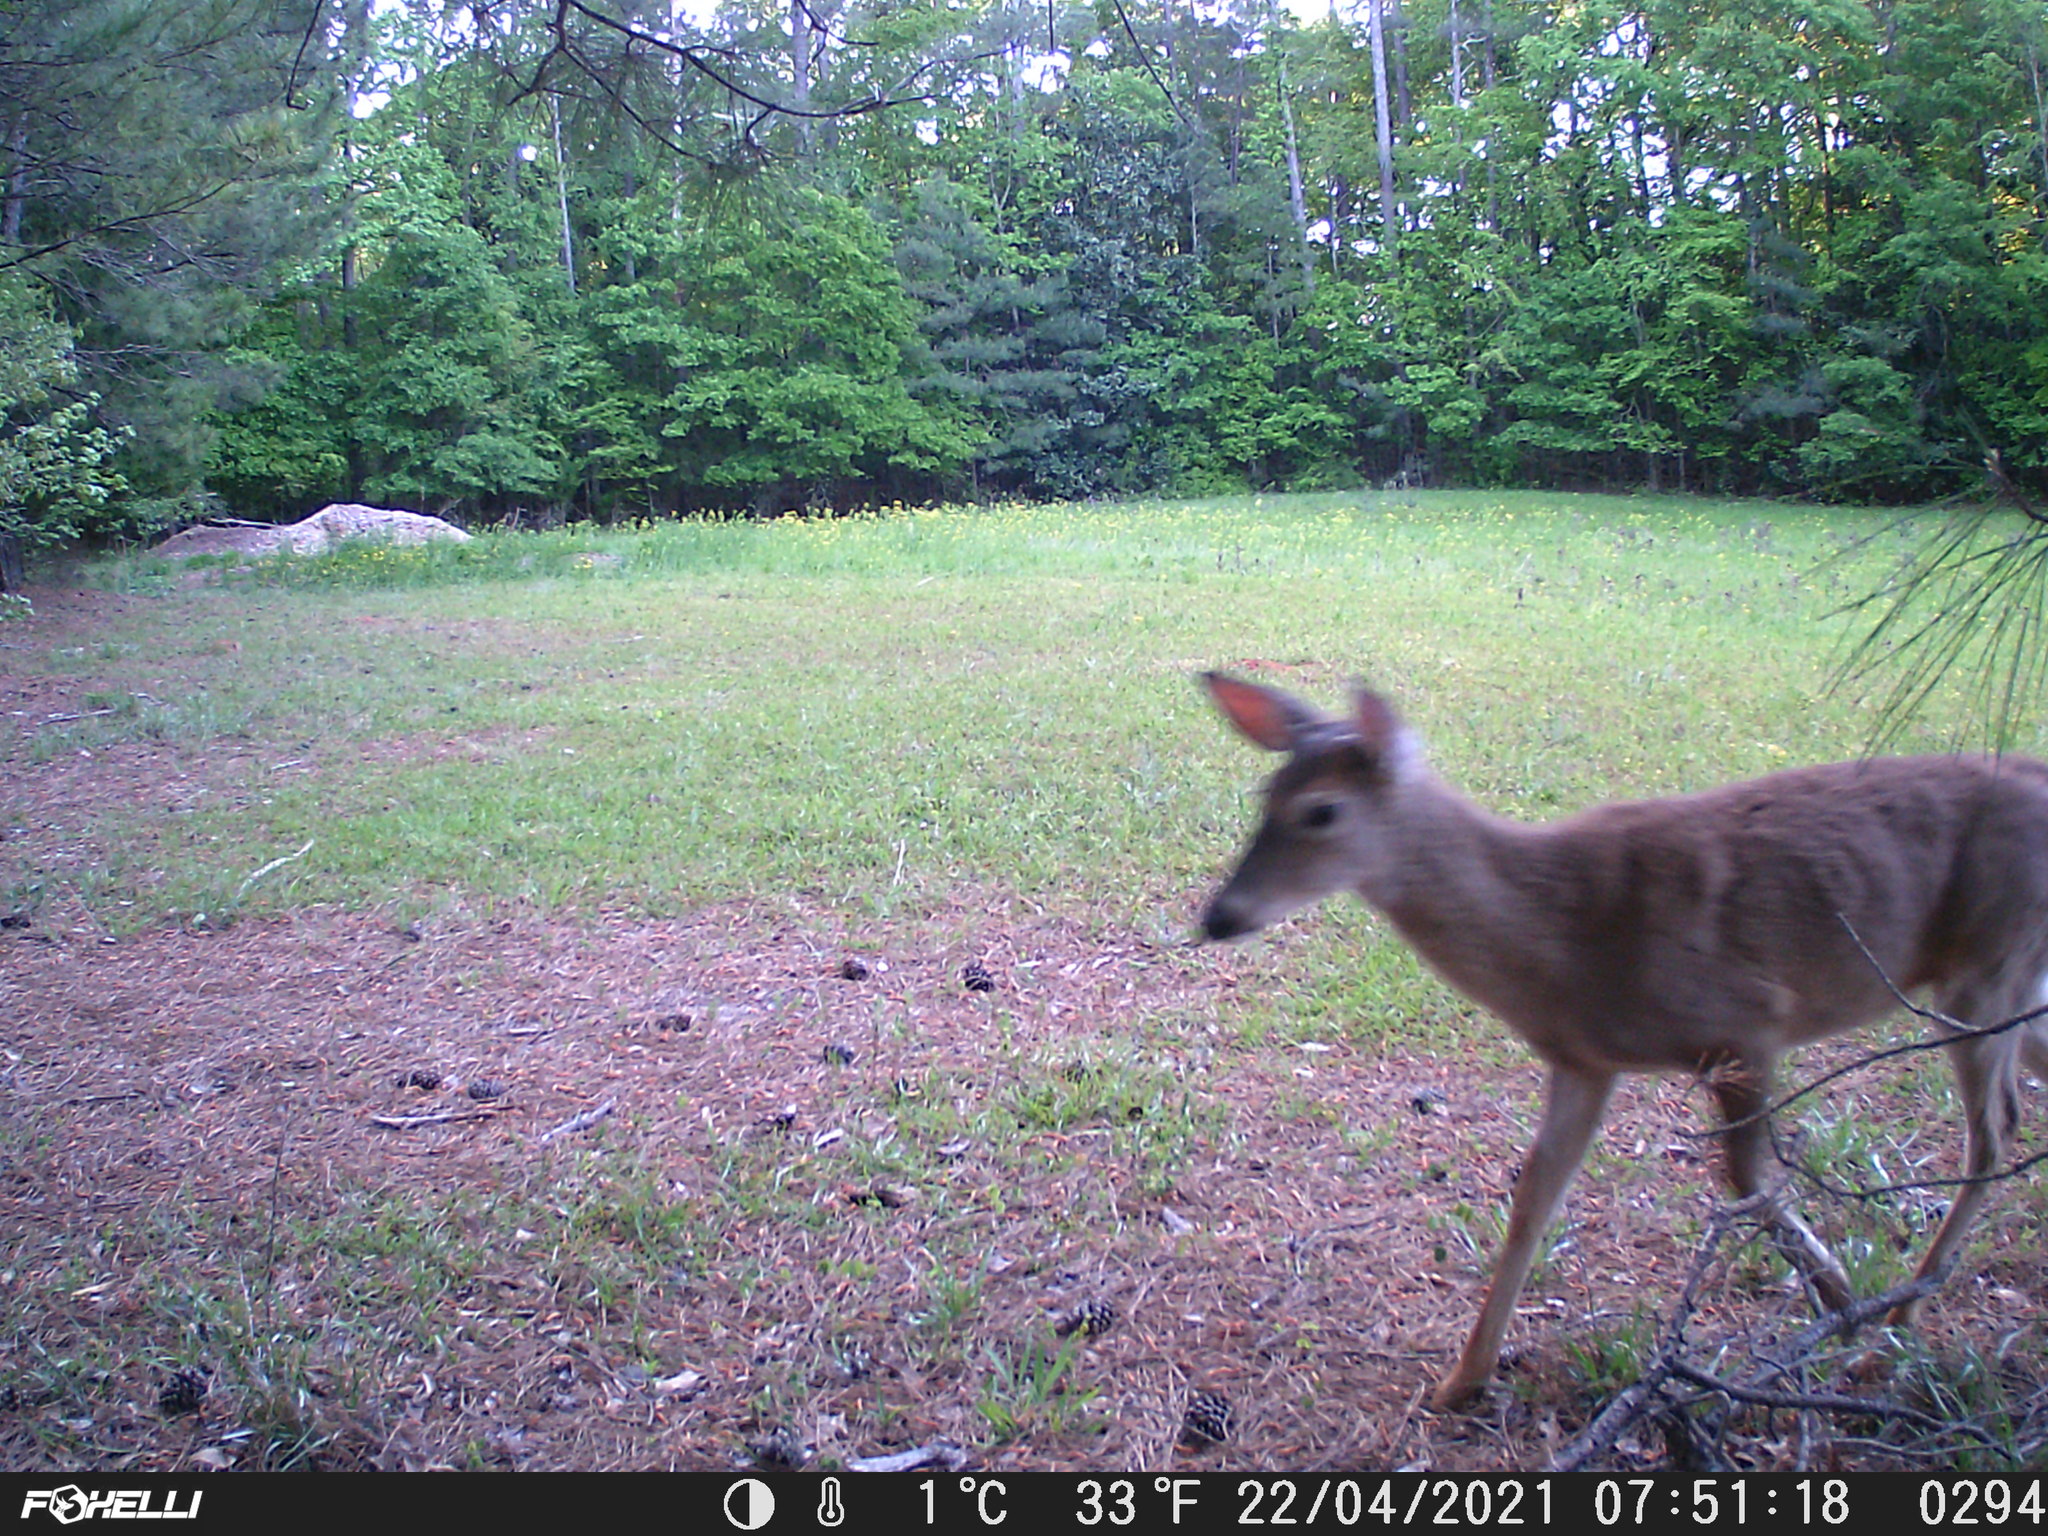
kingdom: Animalia
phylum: Chordata
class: Mammalia
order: Artiodactyla
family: Cervidae
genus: Odocoileus
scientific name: Odocoileus virginianus
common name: White-tailed deer
